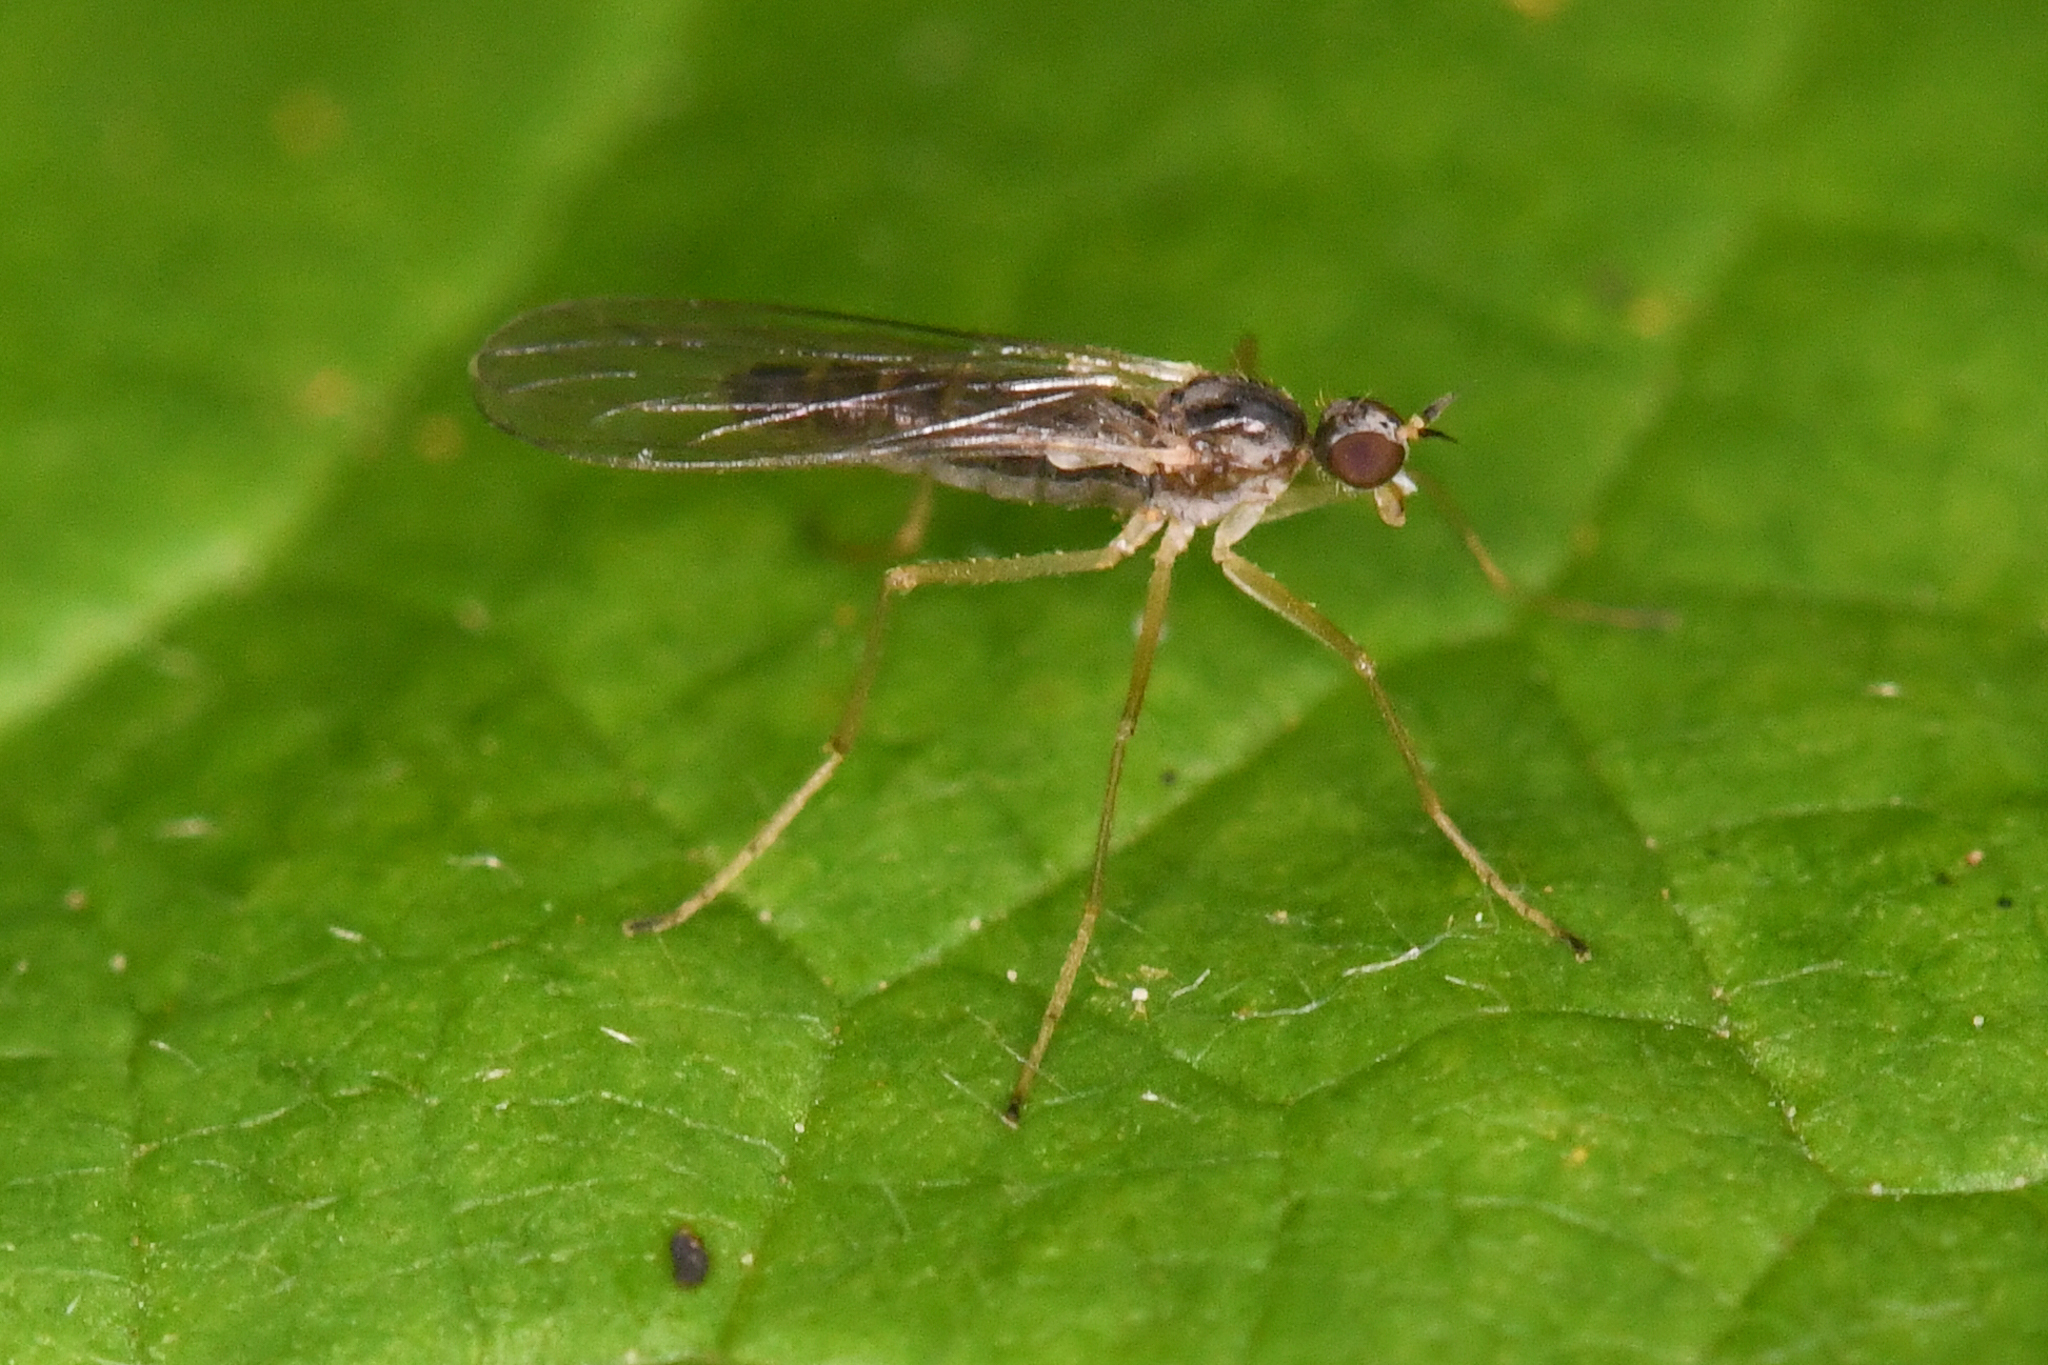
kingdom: Animalia
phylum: Arthropoda
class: Insecta
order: Diptera
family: Brachystomatidae
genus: Boreodromia
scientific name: Boreodromia bicolor
